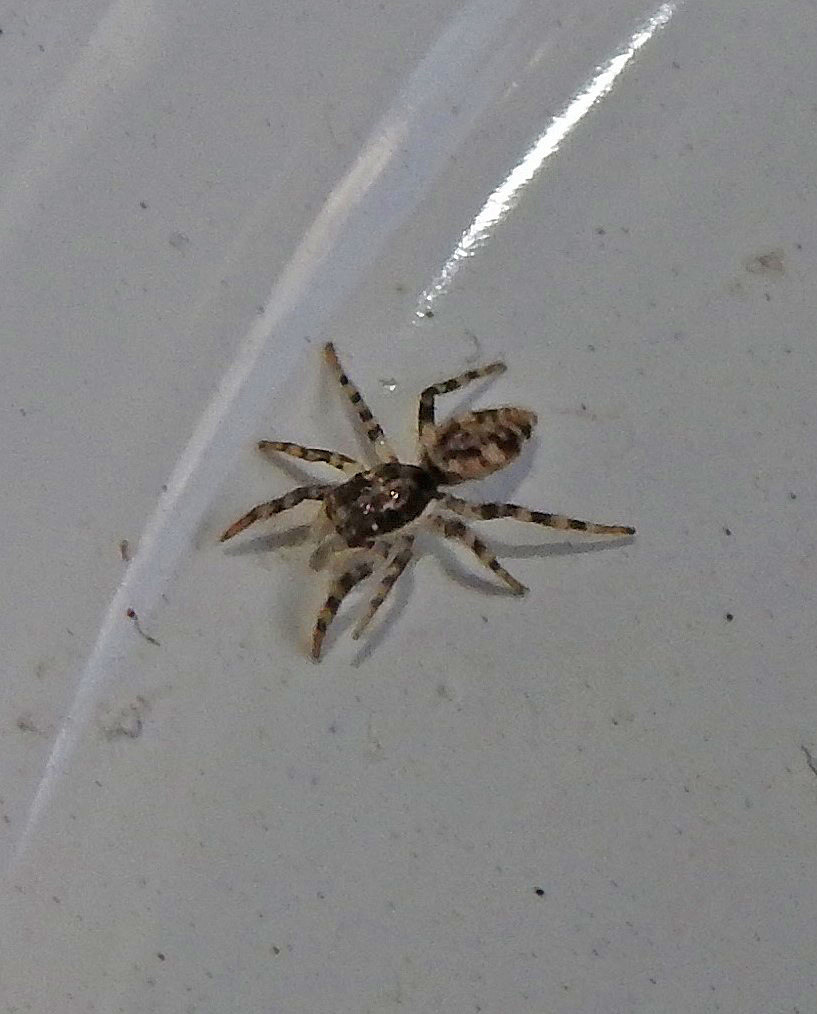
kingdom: Animalia
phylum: Arthropoda
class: Arachnida
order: Araneae
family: Salticidae
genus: Salticus
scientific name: Salticus mutabilis
